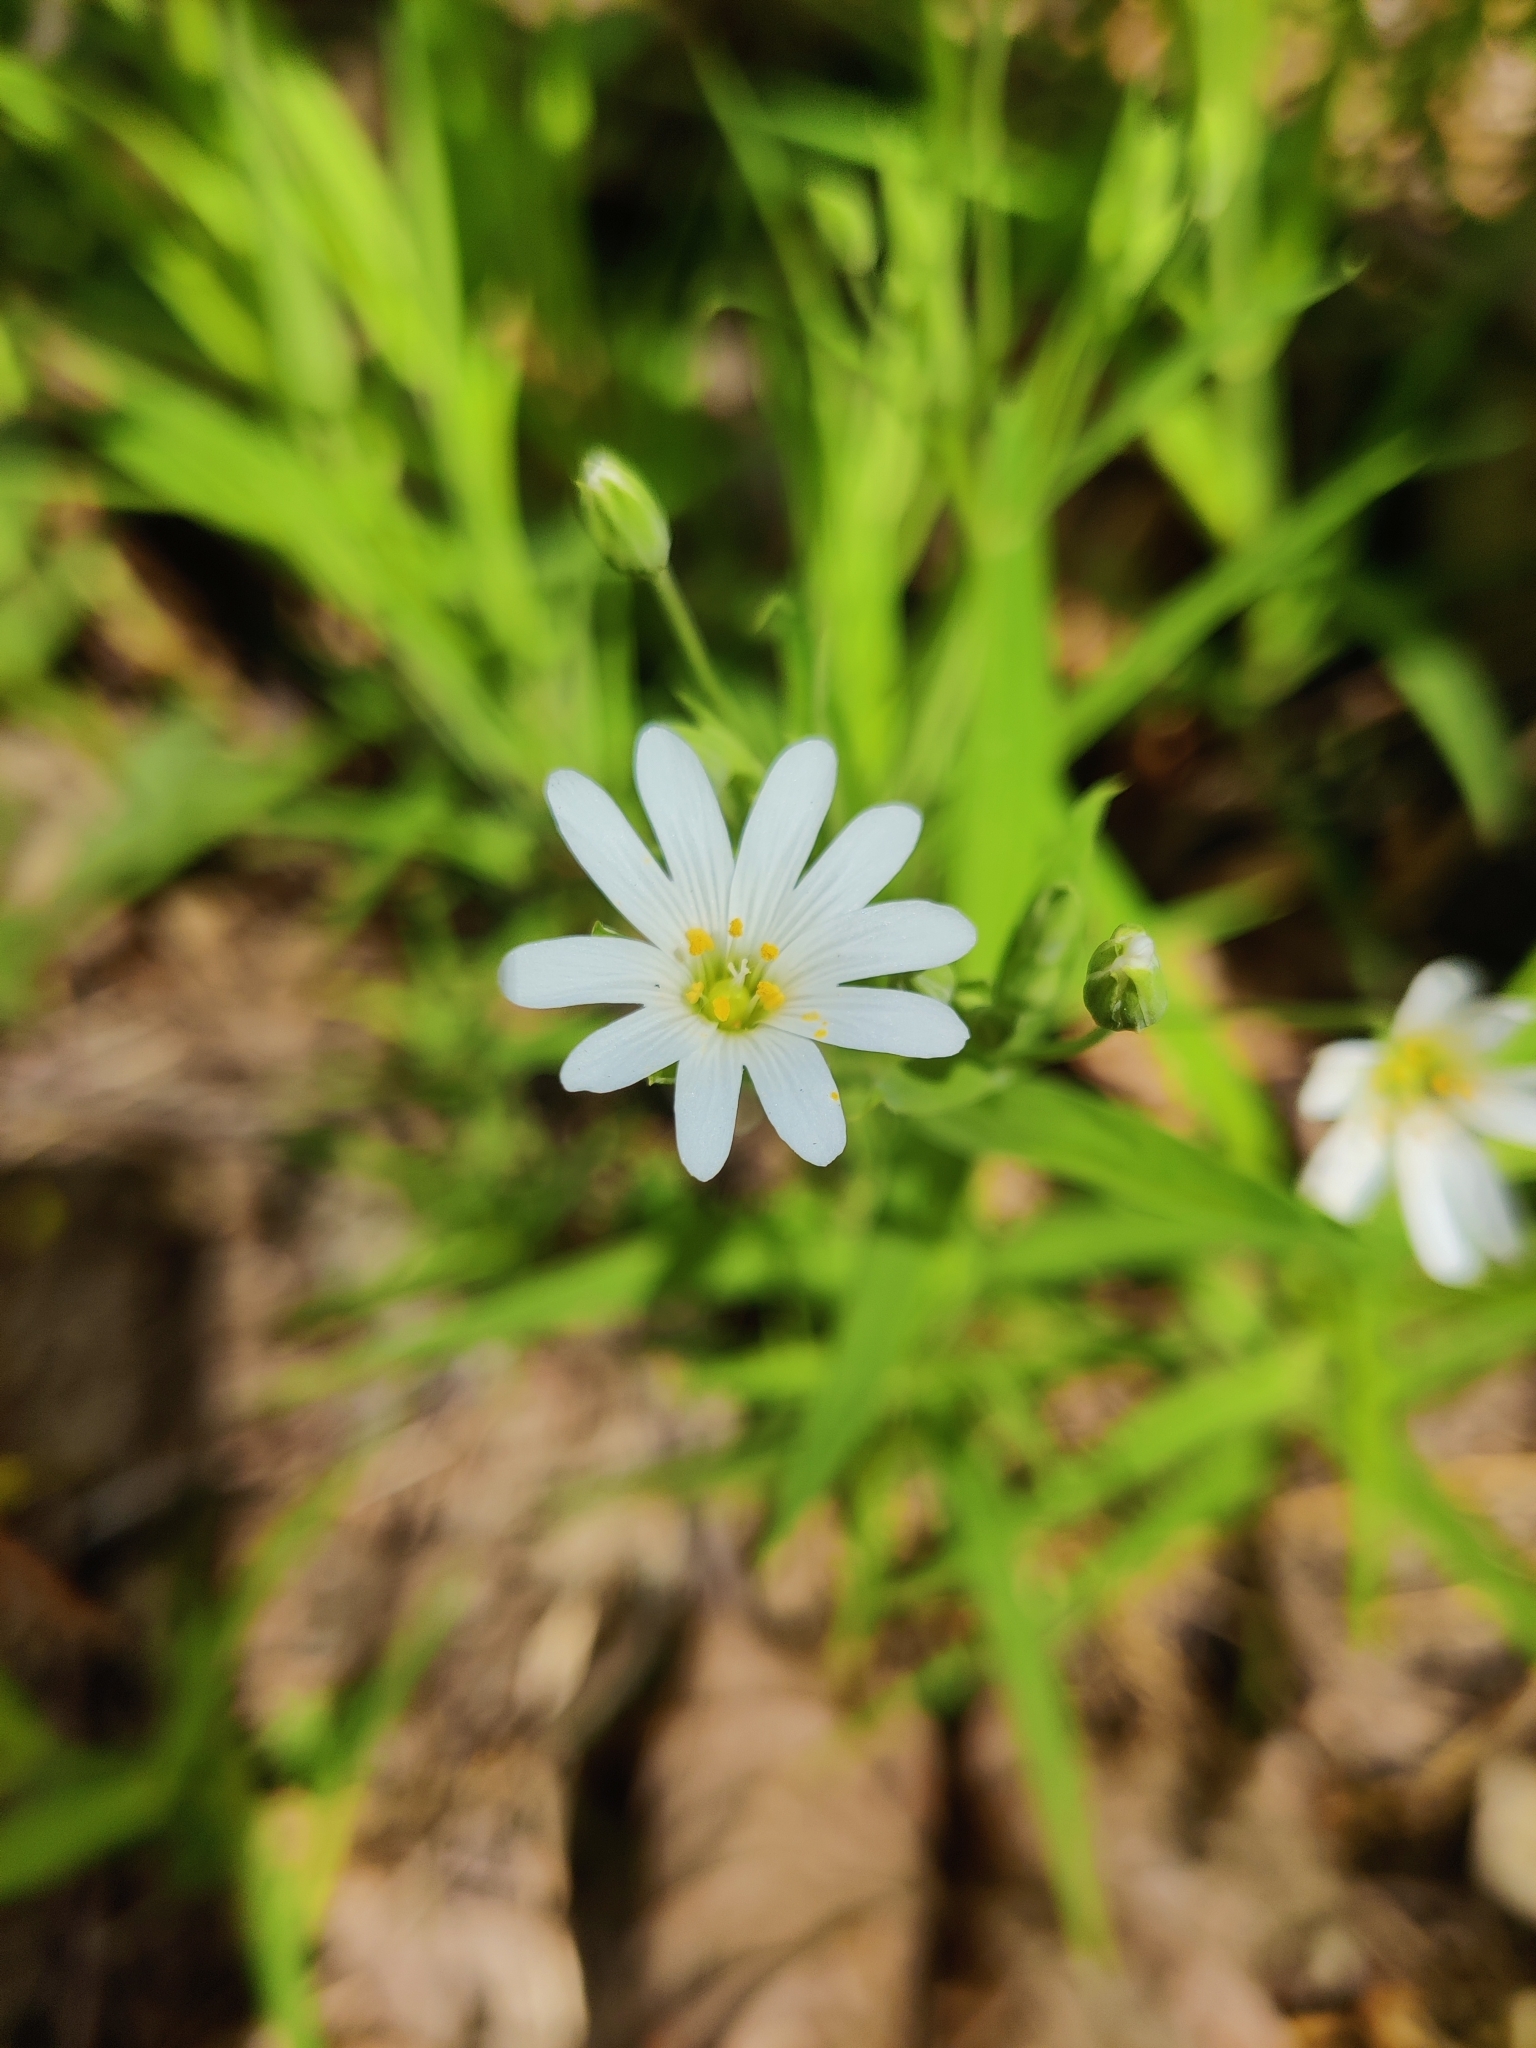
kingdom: Plantae
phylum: Tracheophyta
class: Magnoliopsida
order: Caryophyllales
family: Caryophyllaceae
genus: Rabelera
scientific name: Rabelera holostea
